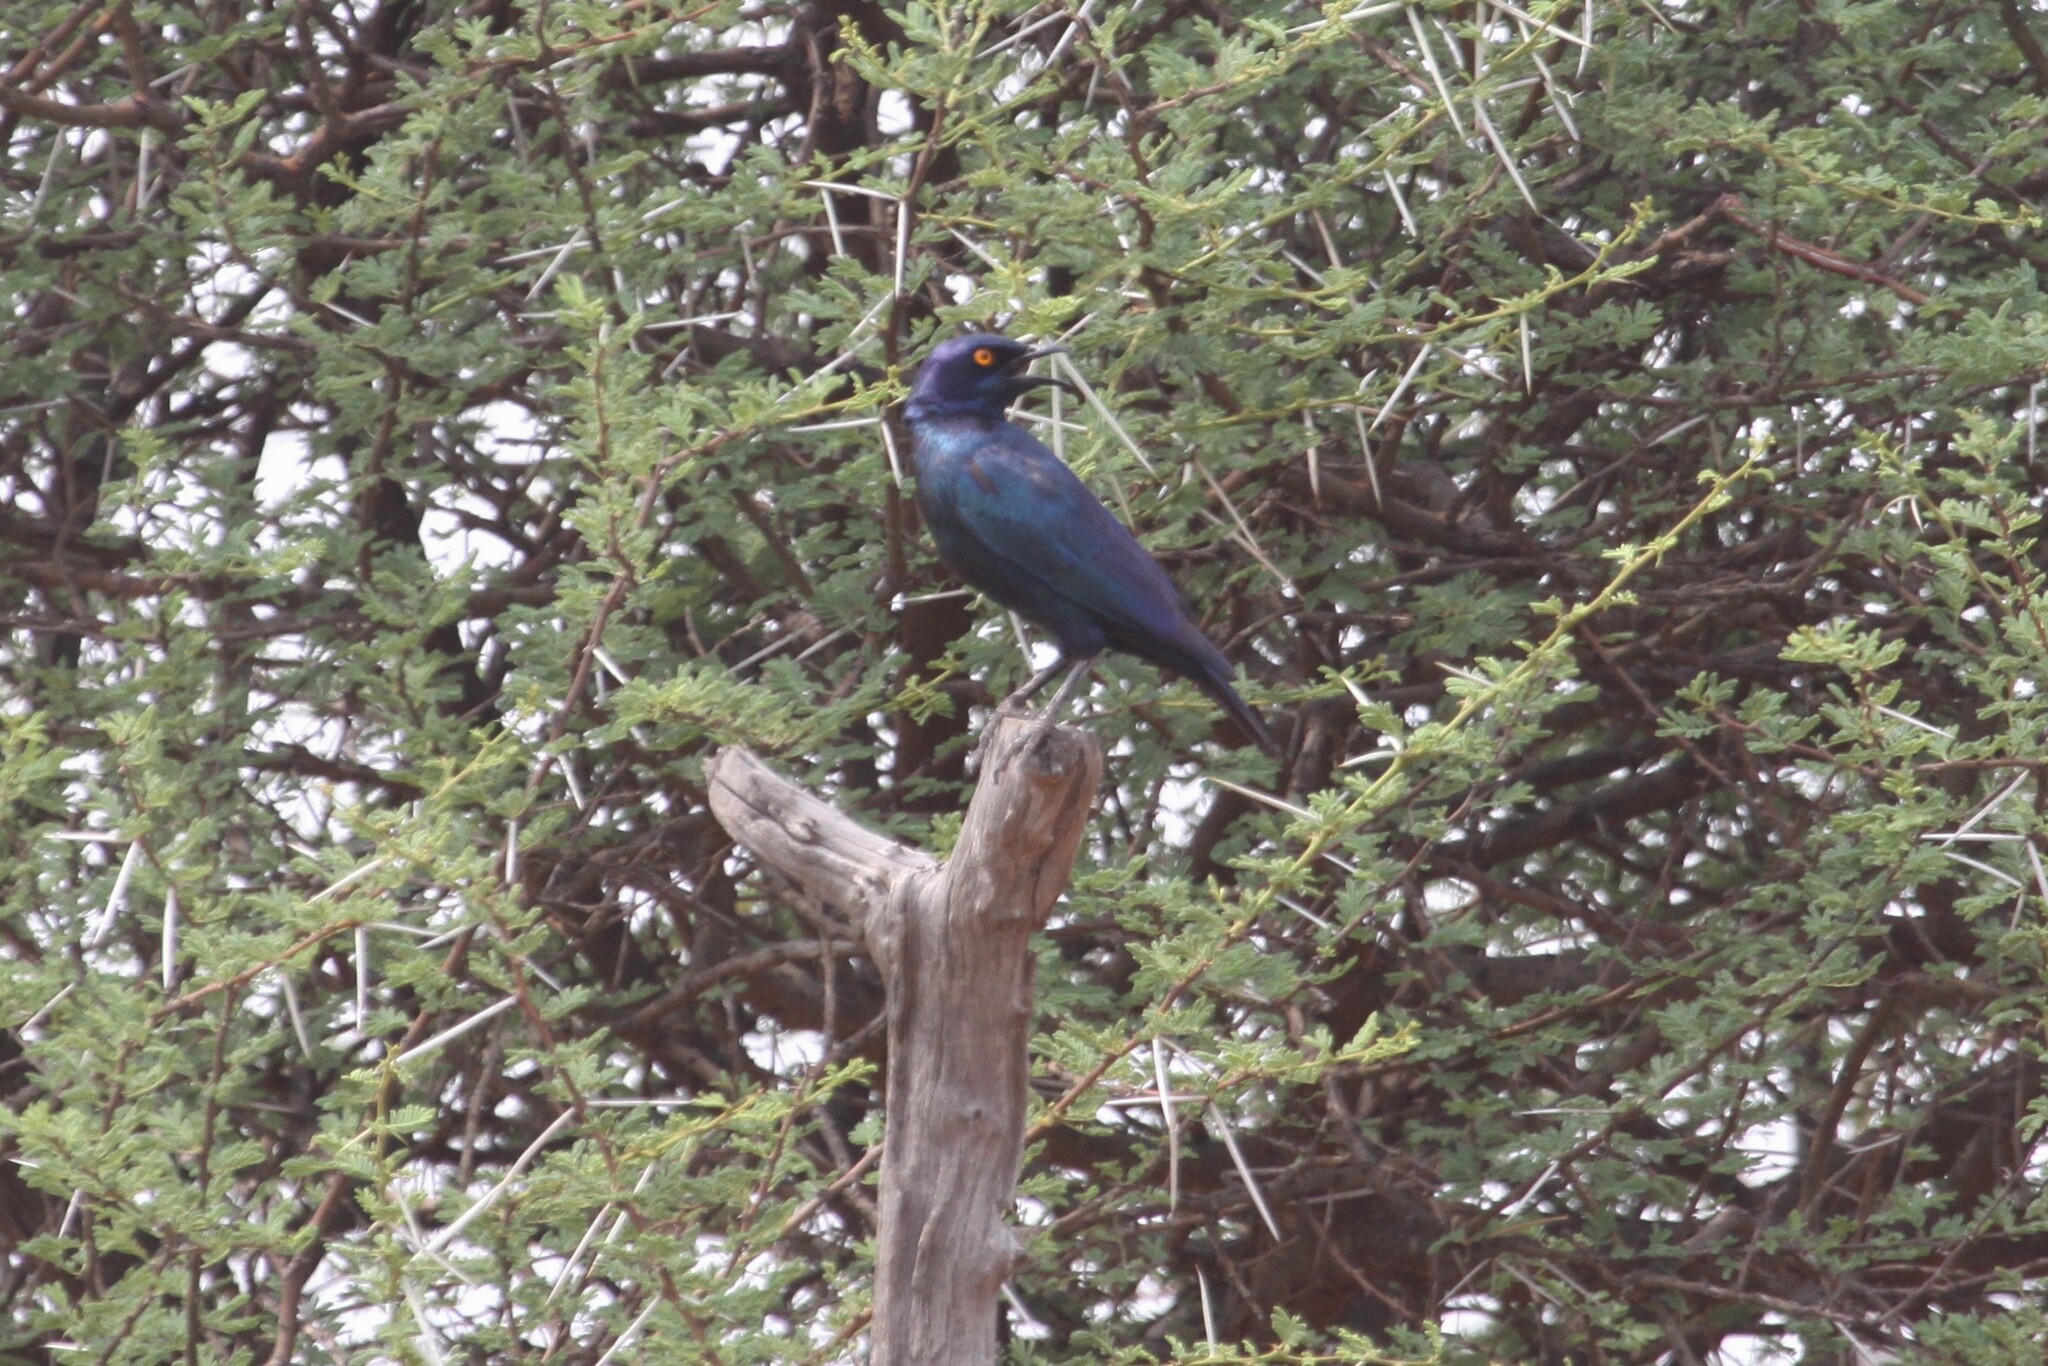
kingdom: Animalia
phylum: Chordata
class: Aves
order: Passeriformes
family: Sturnidae
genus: Lamprotornis
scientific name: Lamprotornis nitens
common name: Cape starling
